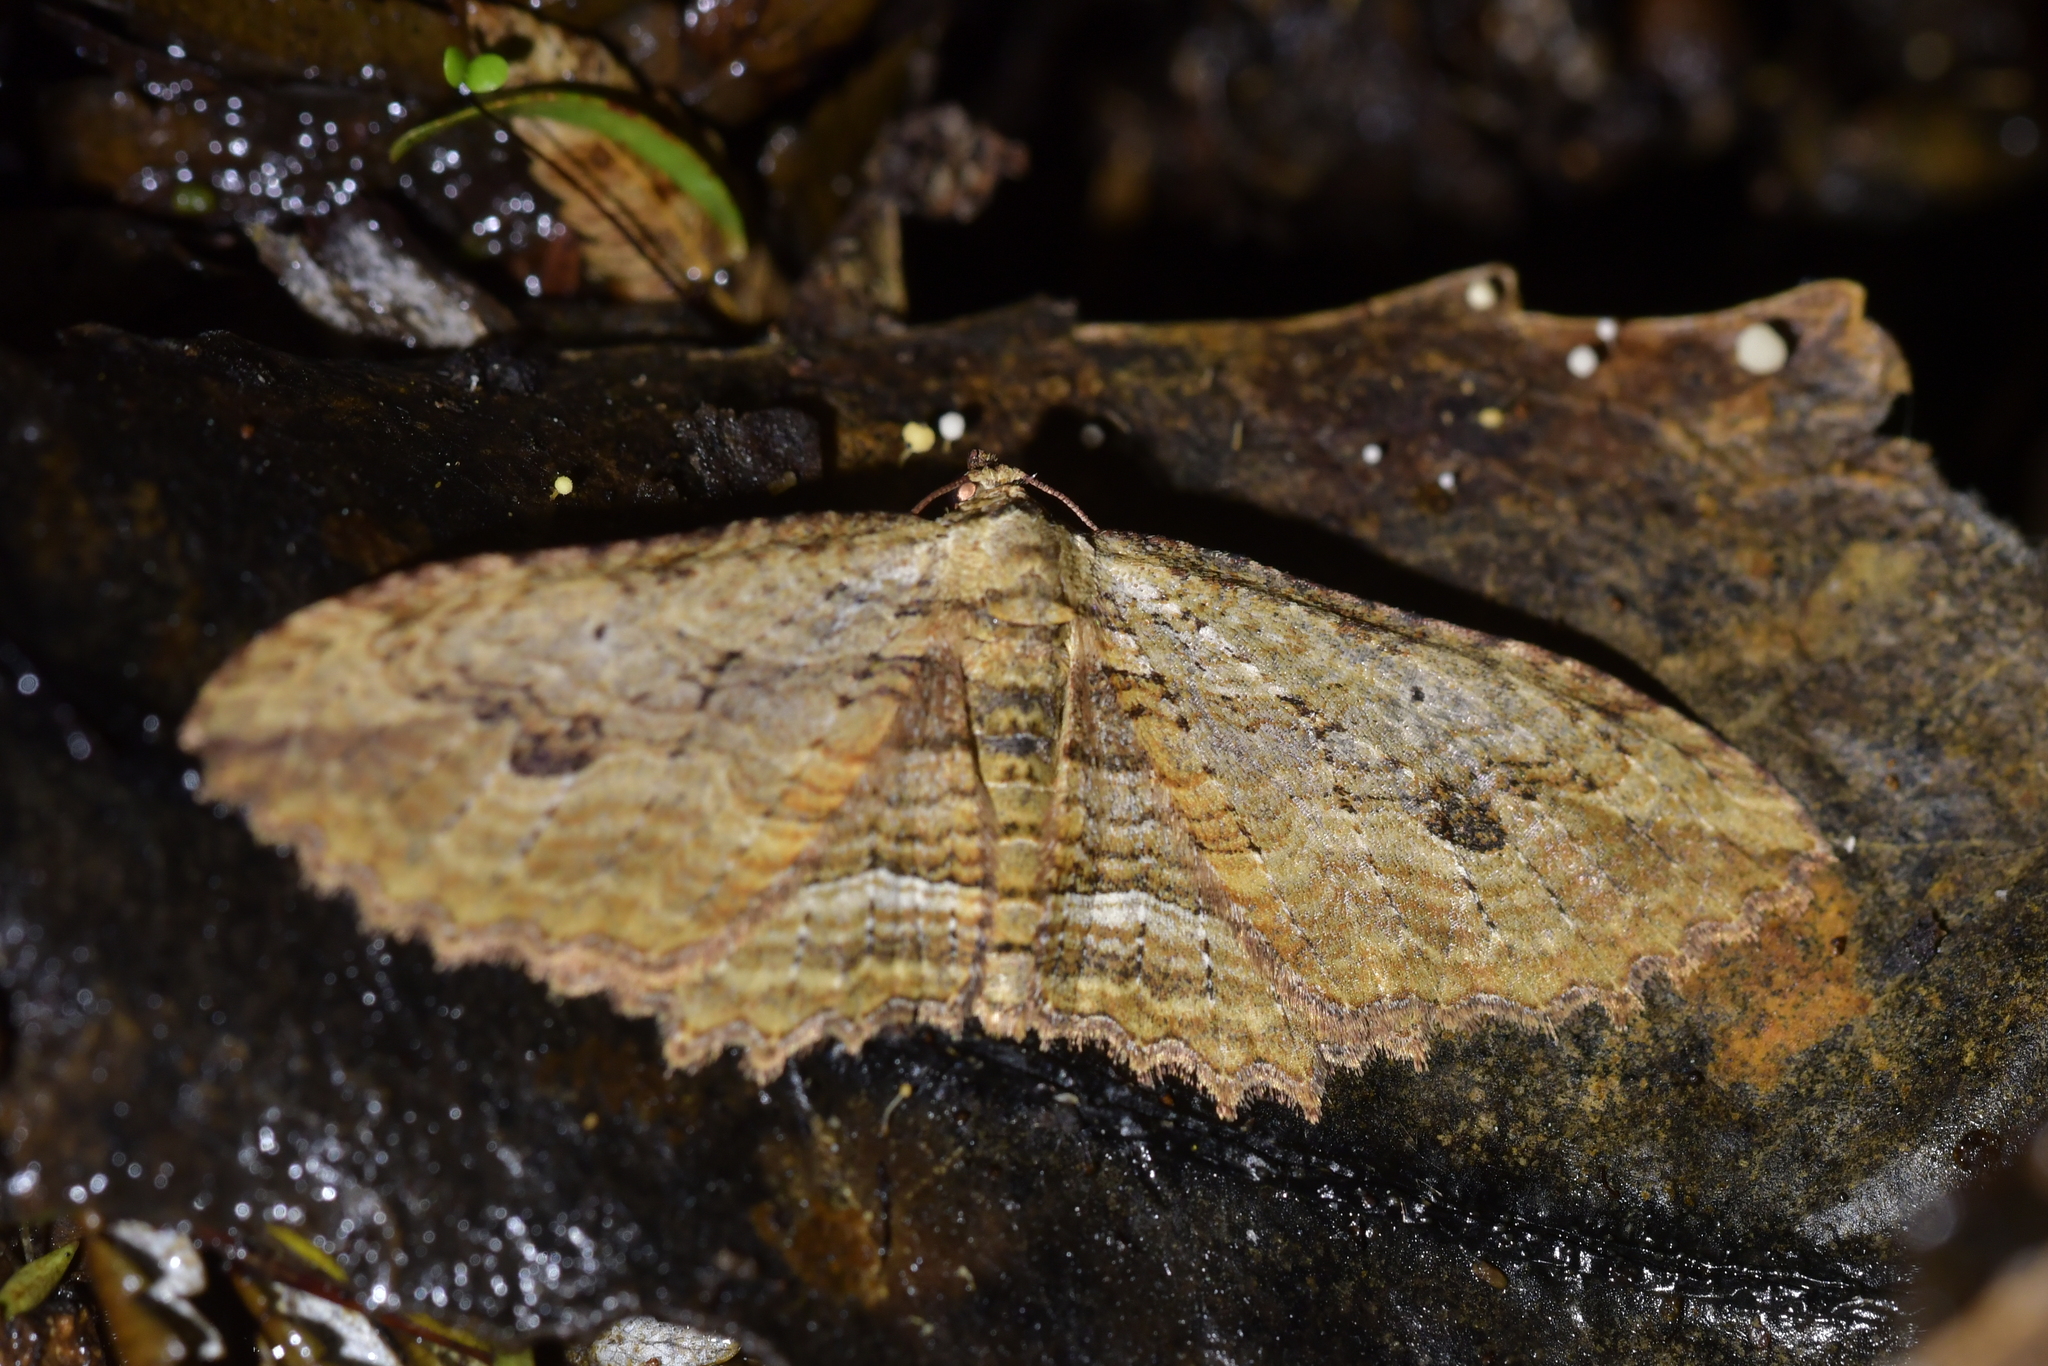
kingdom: Animalia
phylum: Arthropoda
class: Insecta
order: Lepidoptera
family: Geometridae
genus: Austrocidaria
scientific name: Austrocidaria bipartita
